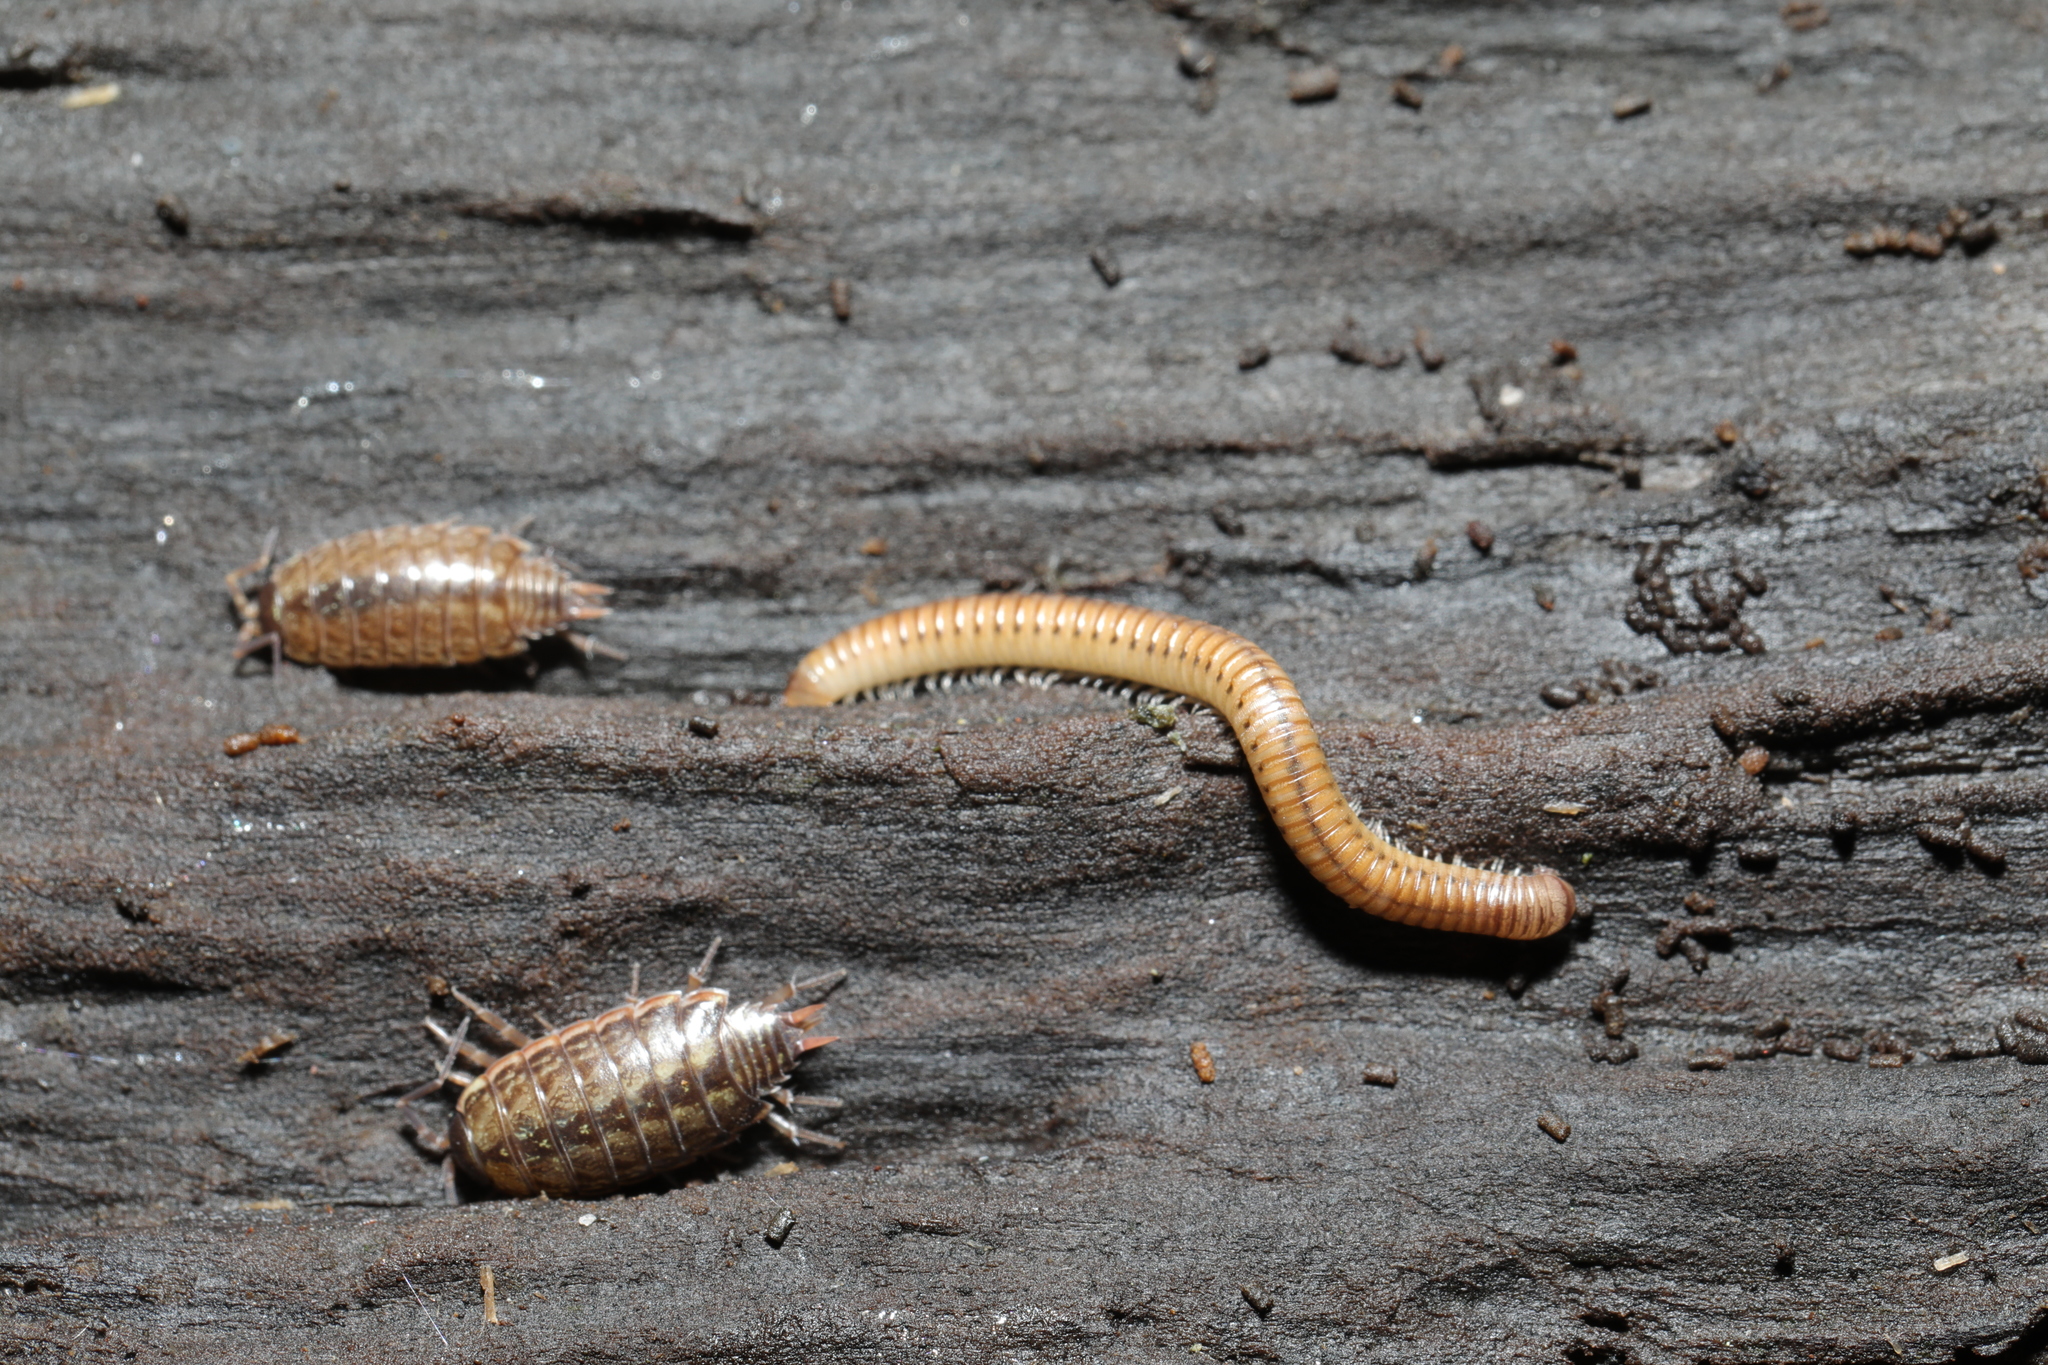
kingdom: Animalia
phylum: Arthropoda
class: Malacostraca
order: Isopoda
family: Philosciidae
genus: Philoscia
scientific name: Philoscia muscorum
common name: Common striped woodlouse
